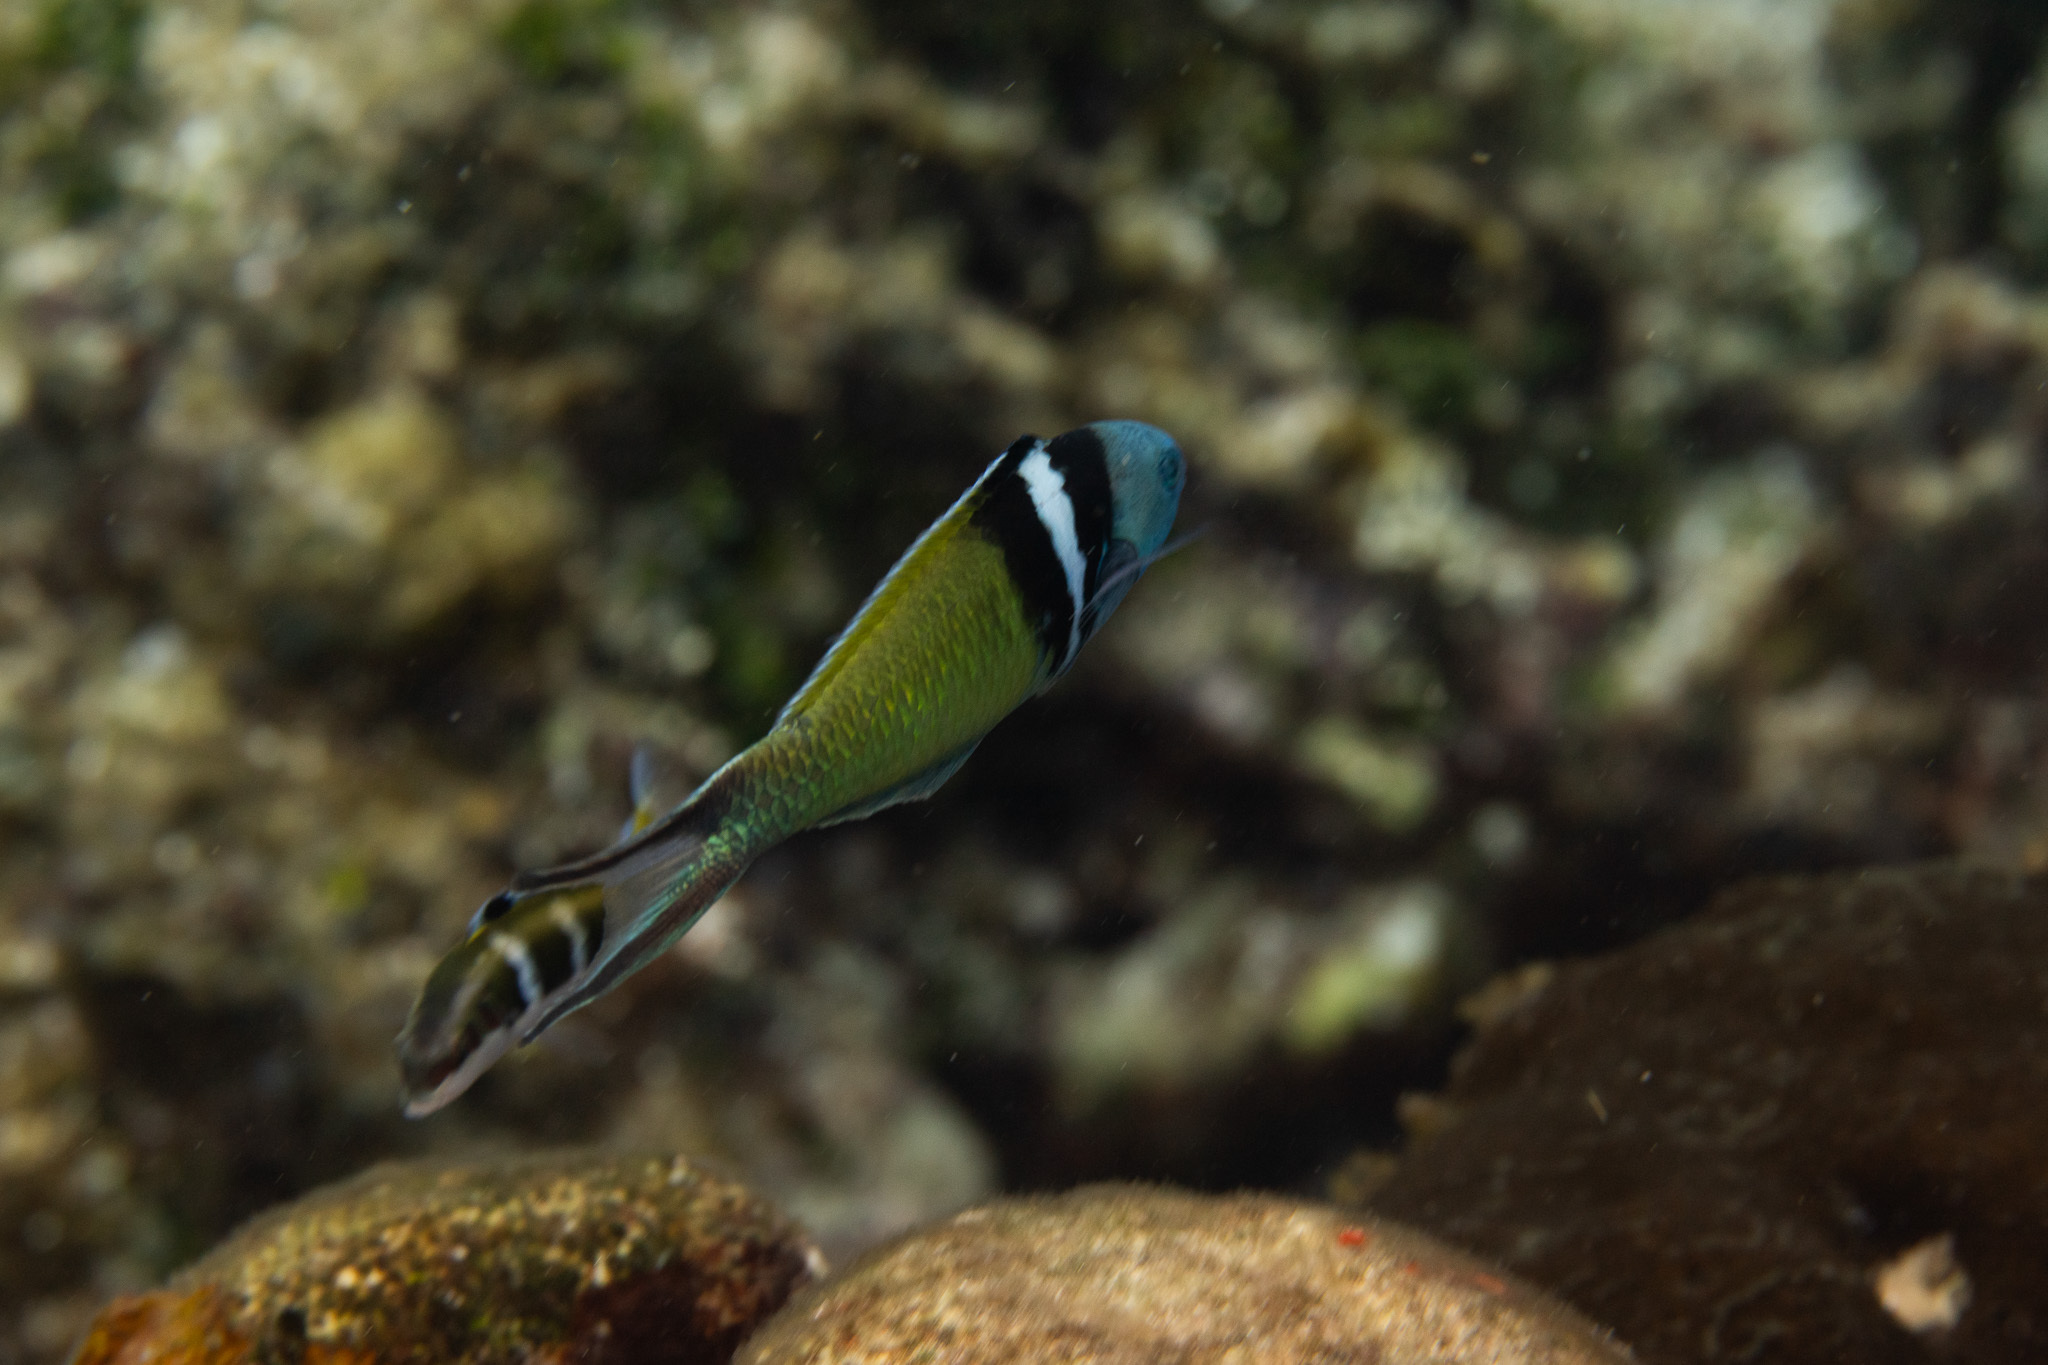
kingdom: Animalia
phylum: Chordata
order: Perciformes
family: Labridae
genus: Thalassoma
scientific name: Thalassoma bifasciatum
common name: Bluehead wrasse
